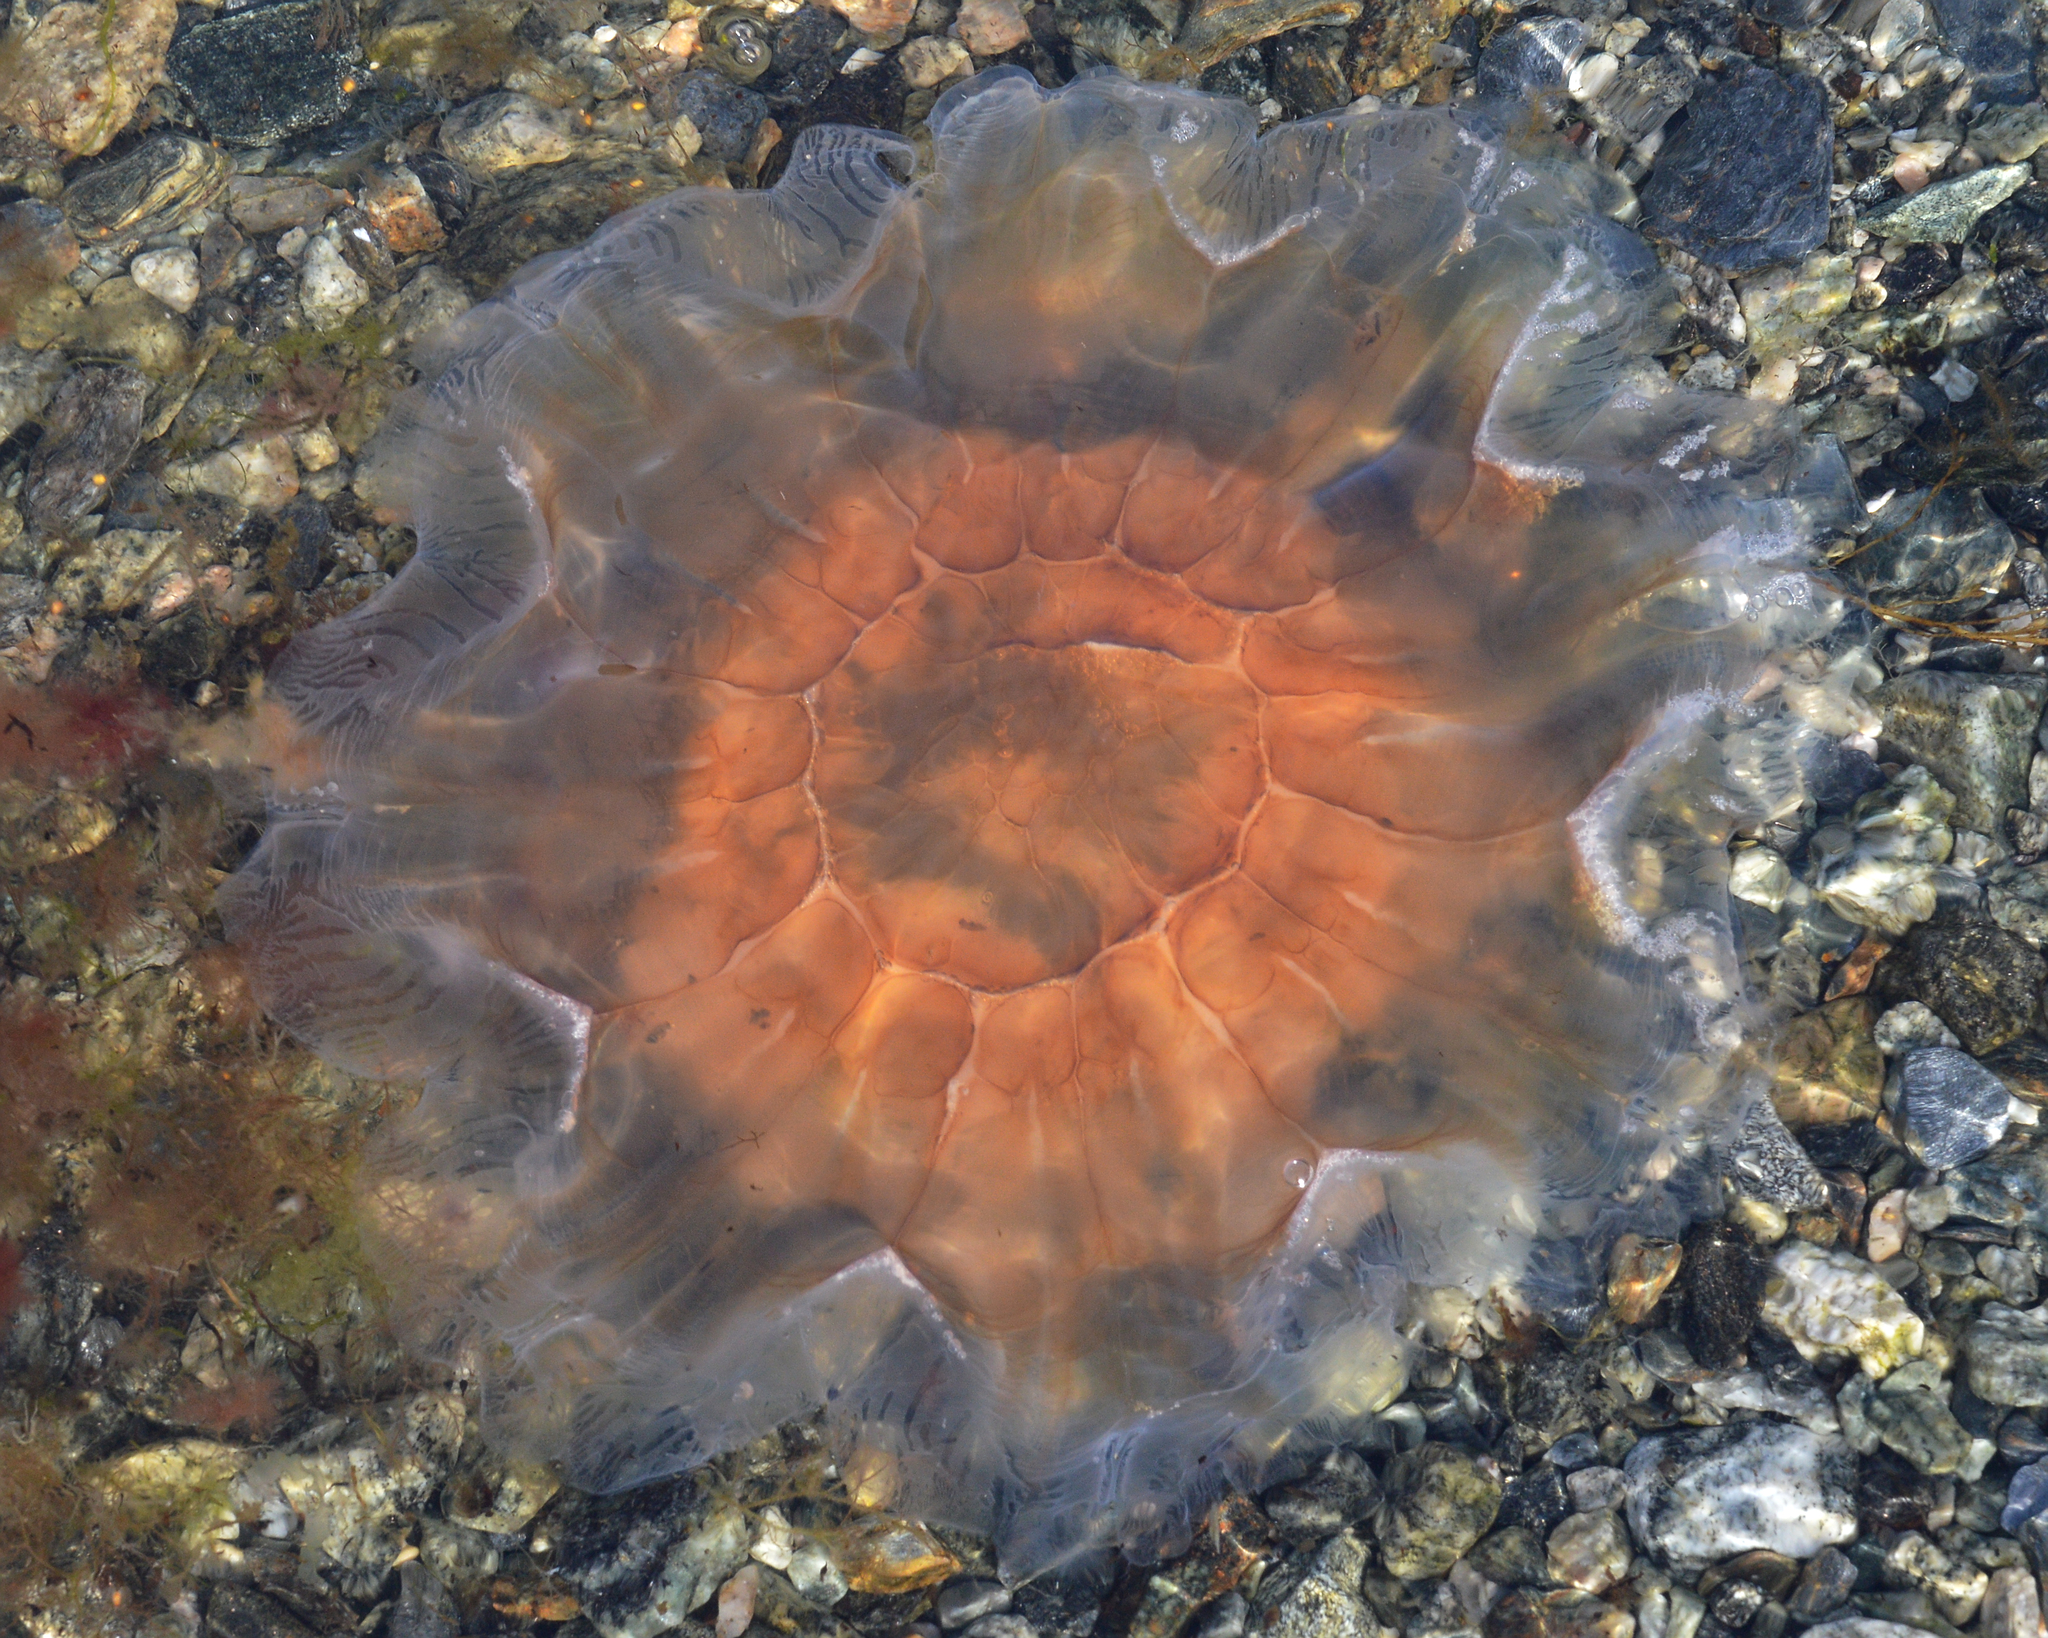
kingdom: Animalia
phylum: Cnidaria
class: Scyphozoa
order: Semaeostomeae
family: Cyaneidae
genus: Cyanea
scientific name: Cyanea capillata
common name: Lion's mane jellyfish
